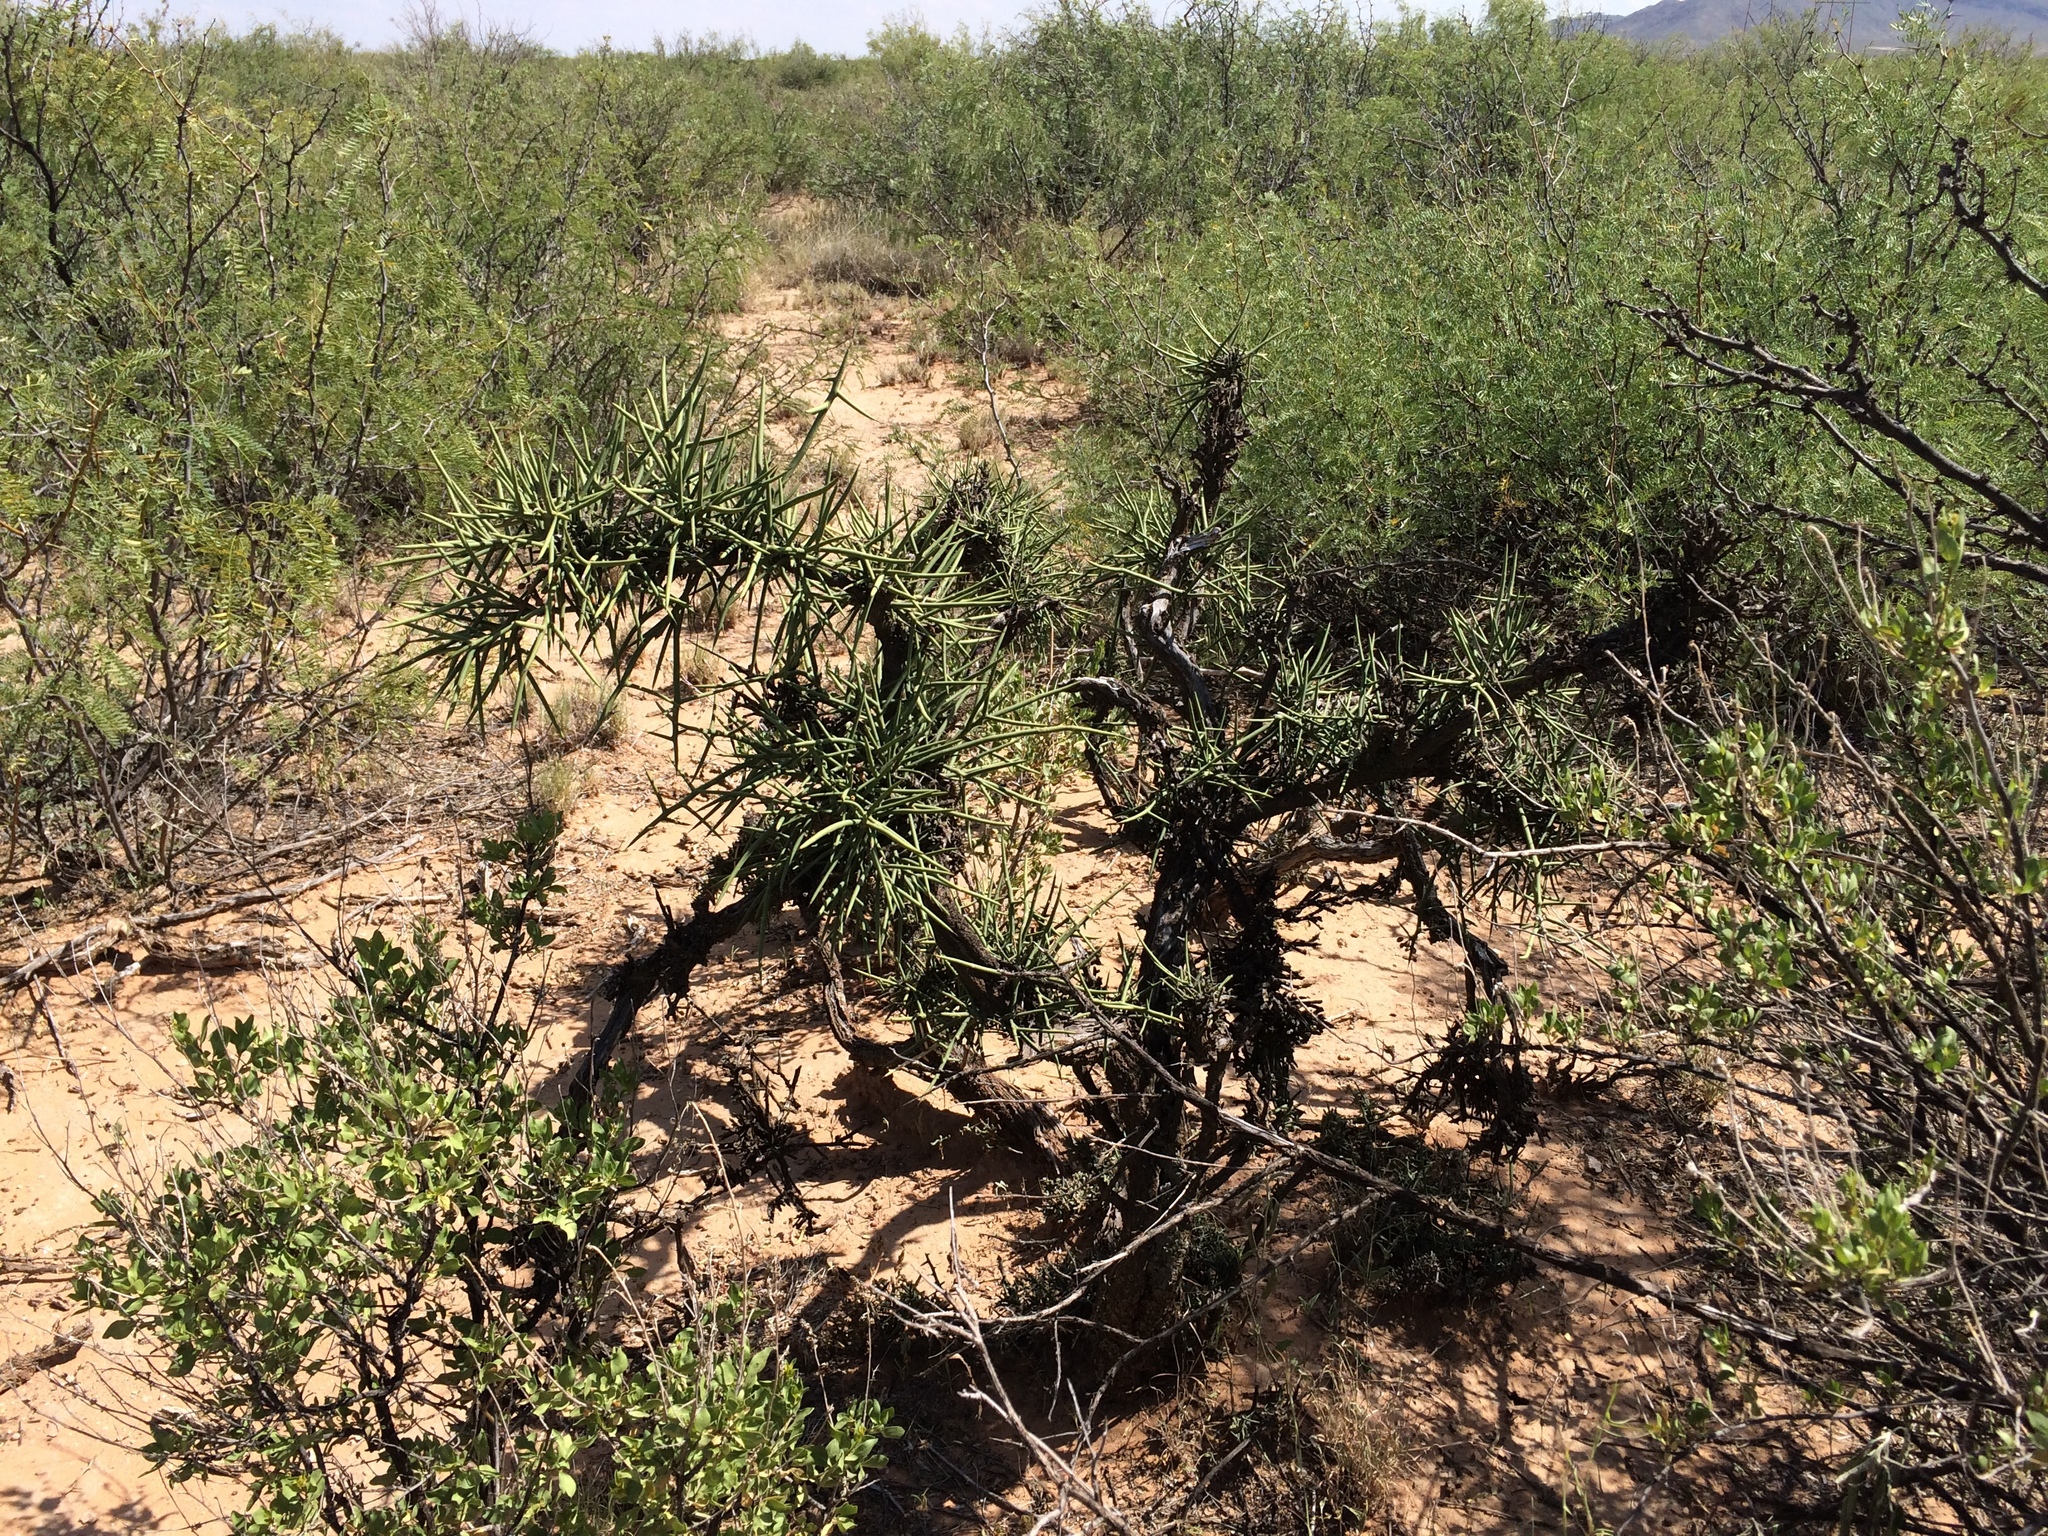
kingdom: Plantae
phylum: Tracheophyta
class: Magnoliopsida
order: Brassicales
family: Koeberliniaceae
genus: Koeberlinia
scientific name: Koeberlinia spinosa
